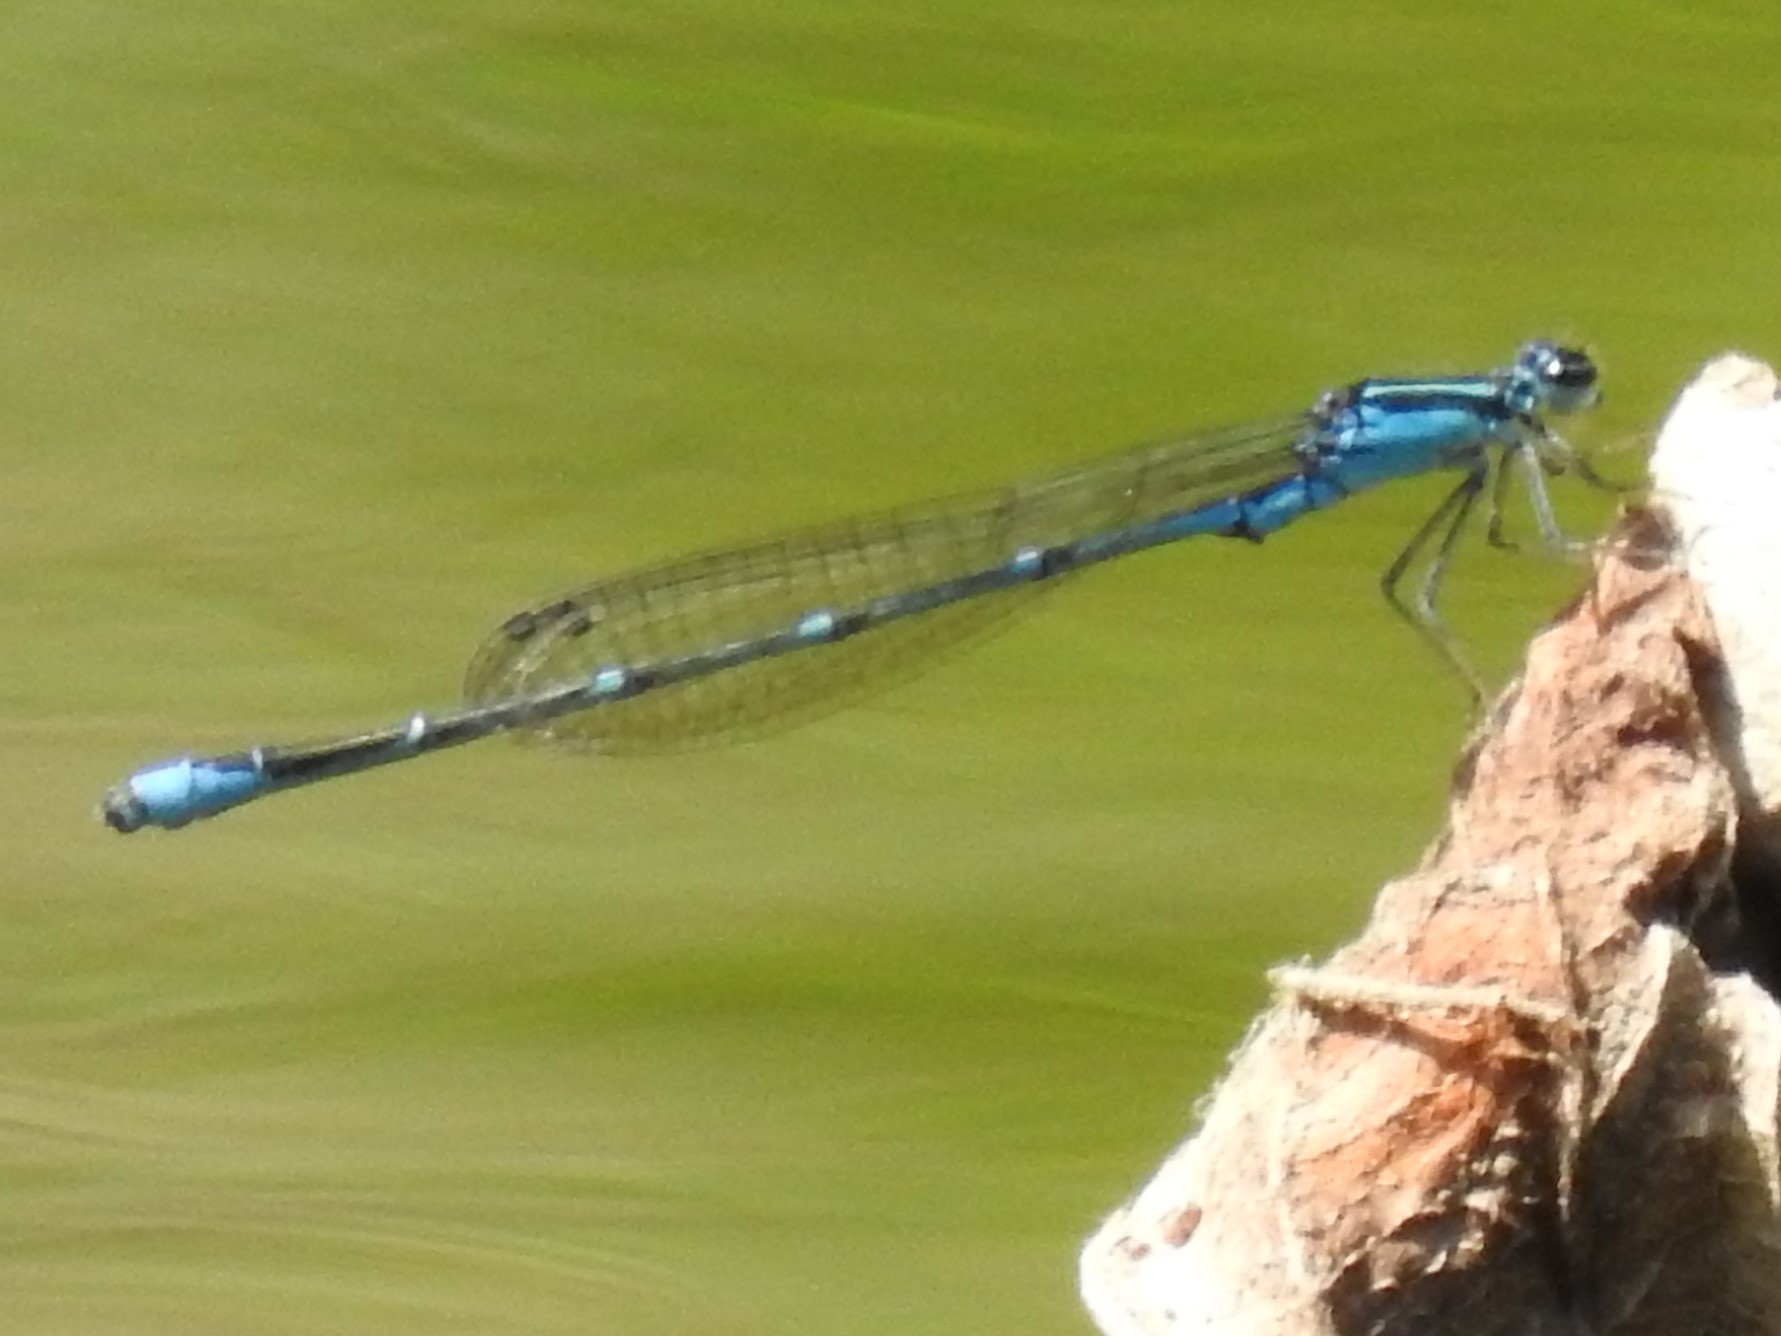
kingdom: Animalia
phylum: Arthropoda
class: Insecta
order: Odonata
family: Coenagrionidae
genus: Enallagma
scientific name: Enallagma exsulans
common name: Stream bluet
